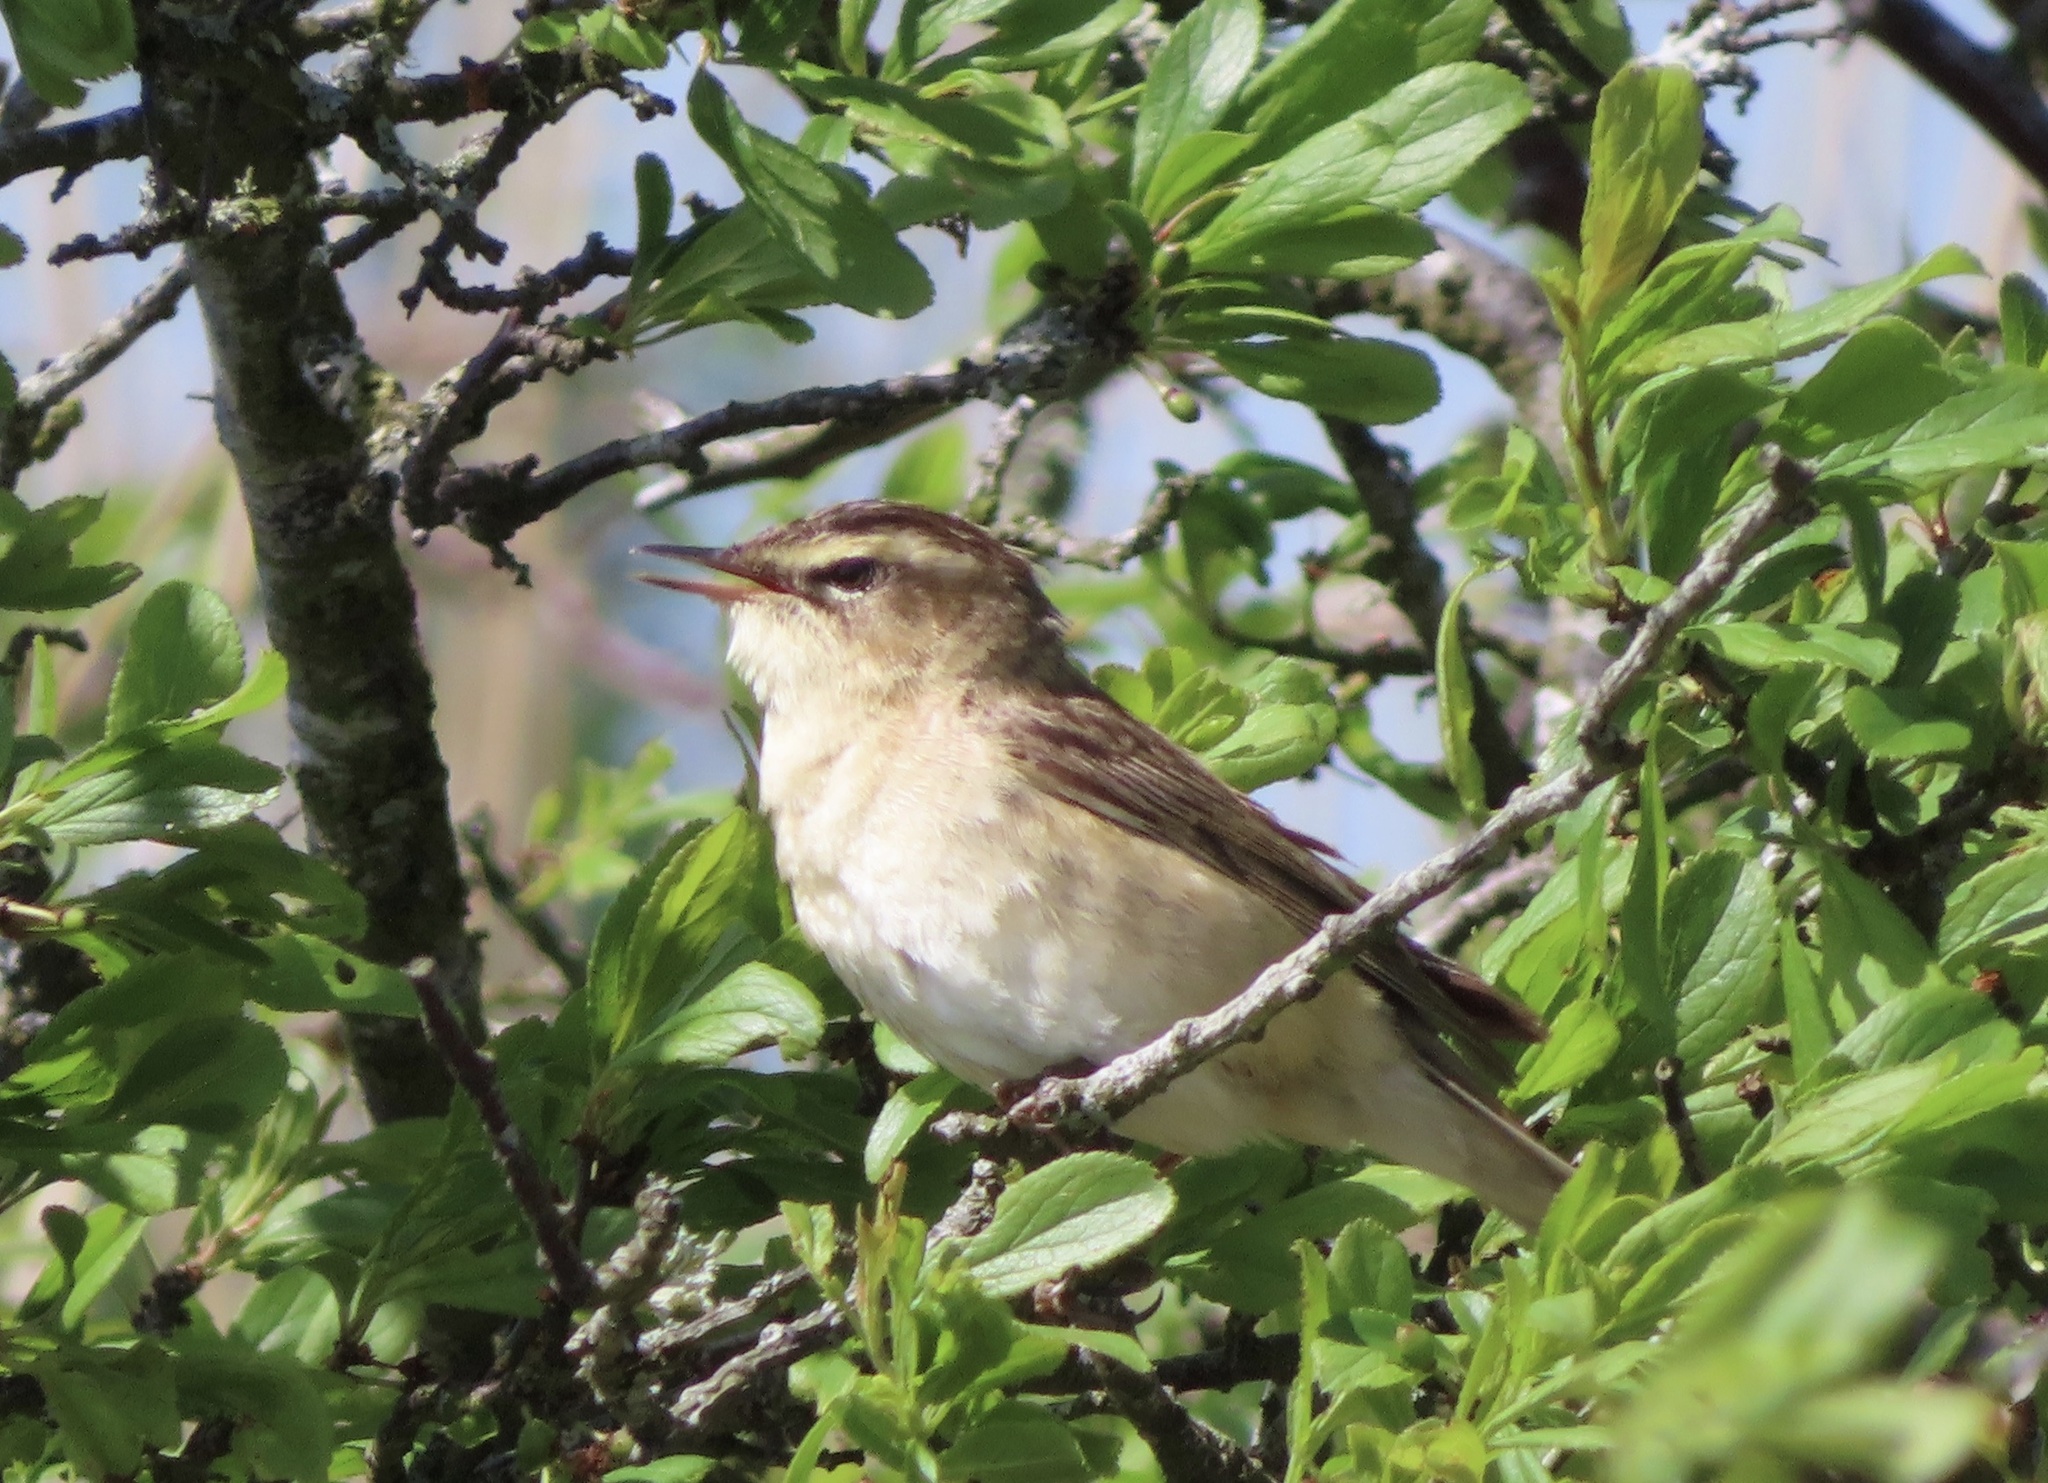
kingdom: Animalia
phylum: Chordata
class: Aves
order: Passeriformes
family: Acrocephalidae
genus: Acrocephalus
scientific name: Acrocephalus schoenobaenus
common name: Sedge warbler
